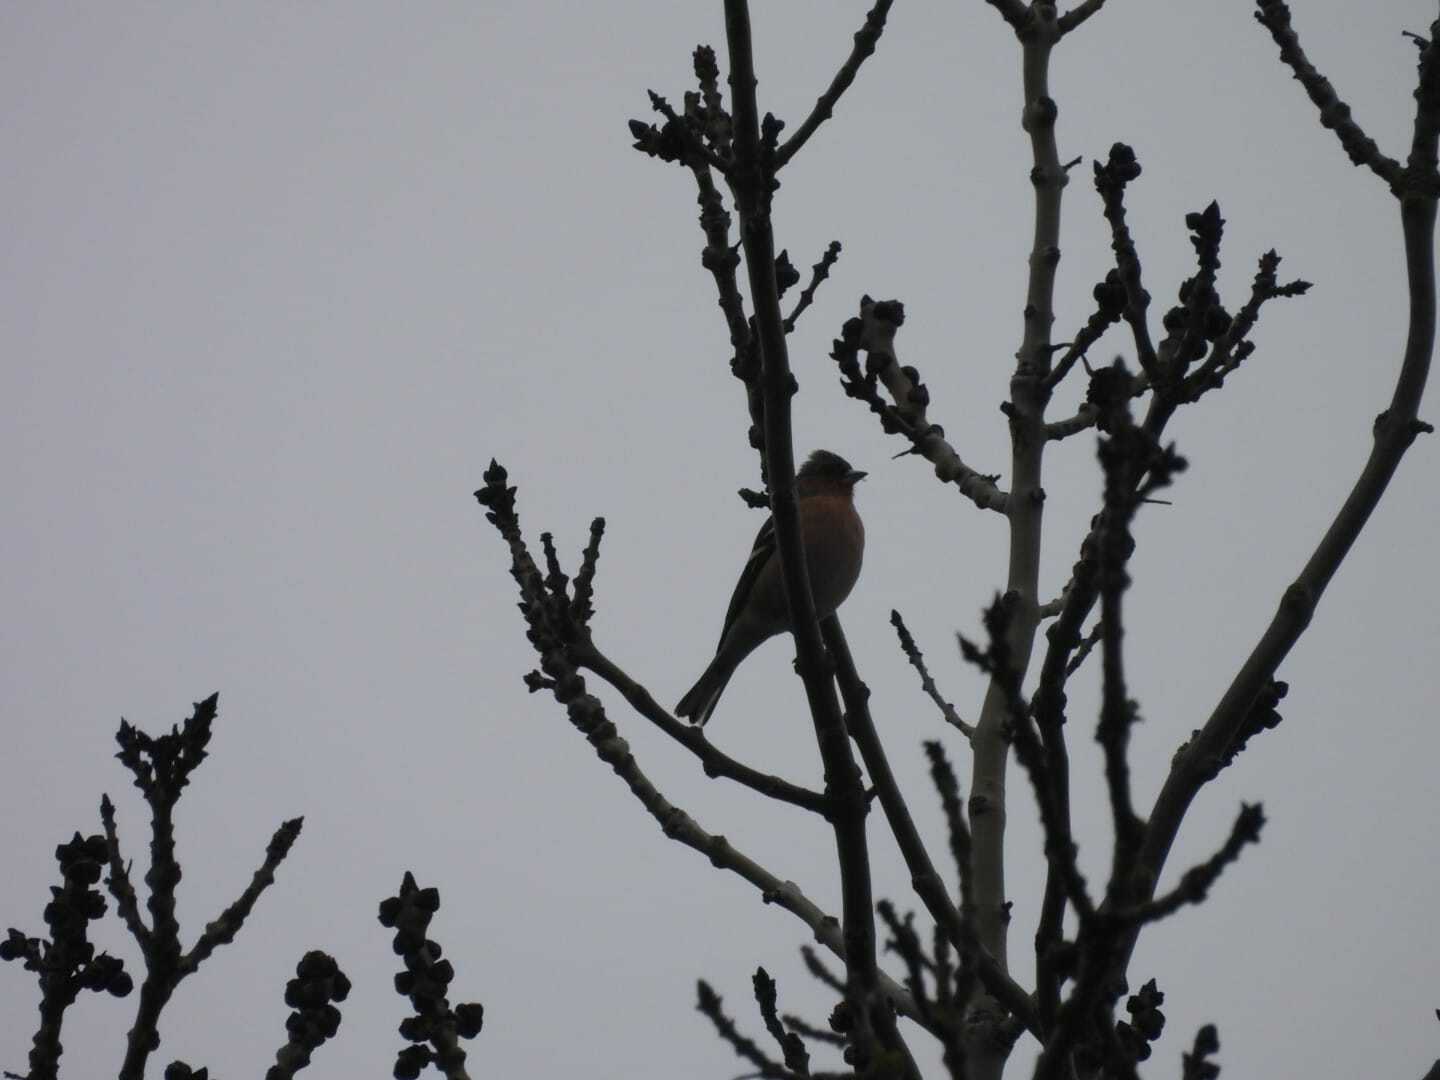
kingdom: Animalia
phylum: Chordata
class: Aves
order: Passeriformes
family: Fringillidae
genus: Fringilla
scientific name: Fringilla coelebs
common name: Common chaffinch
